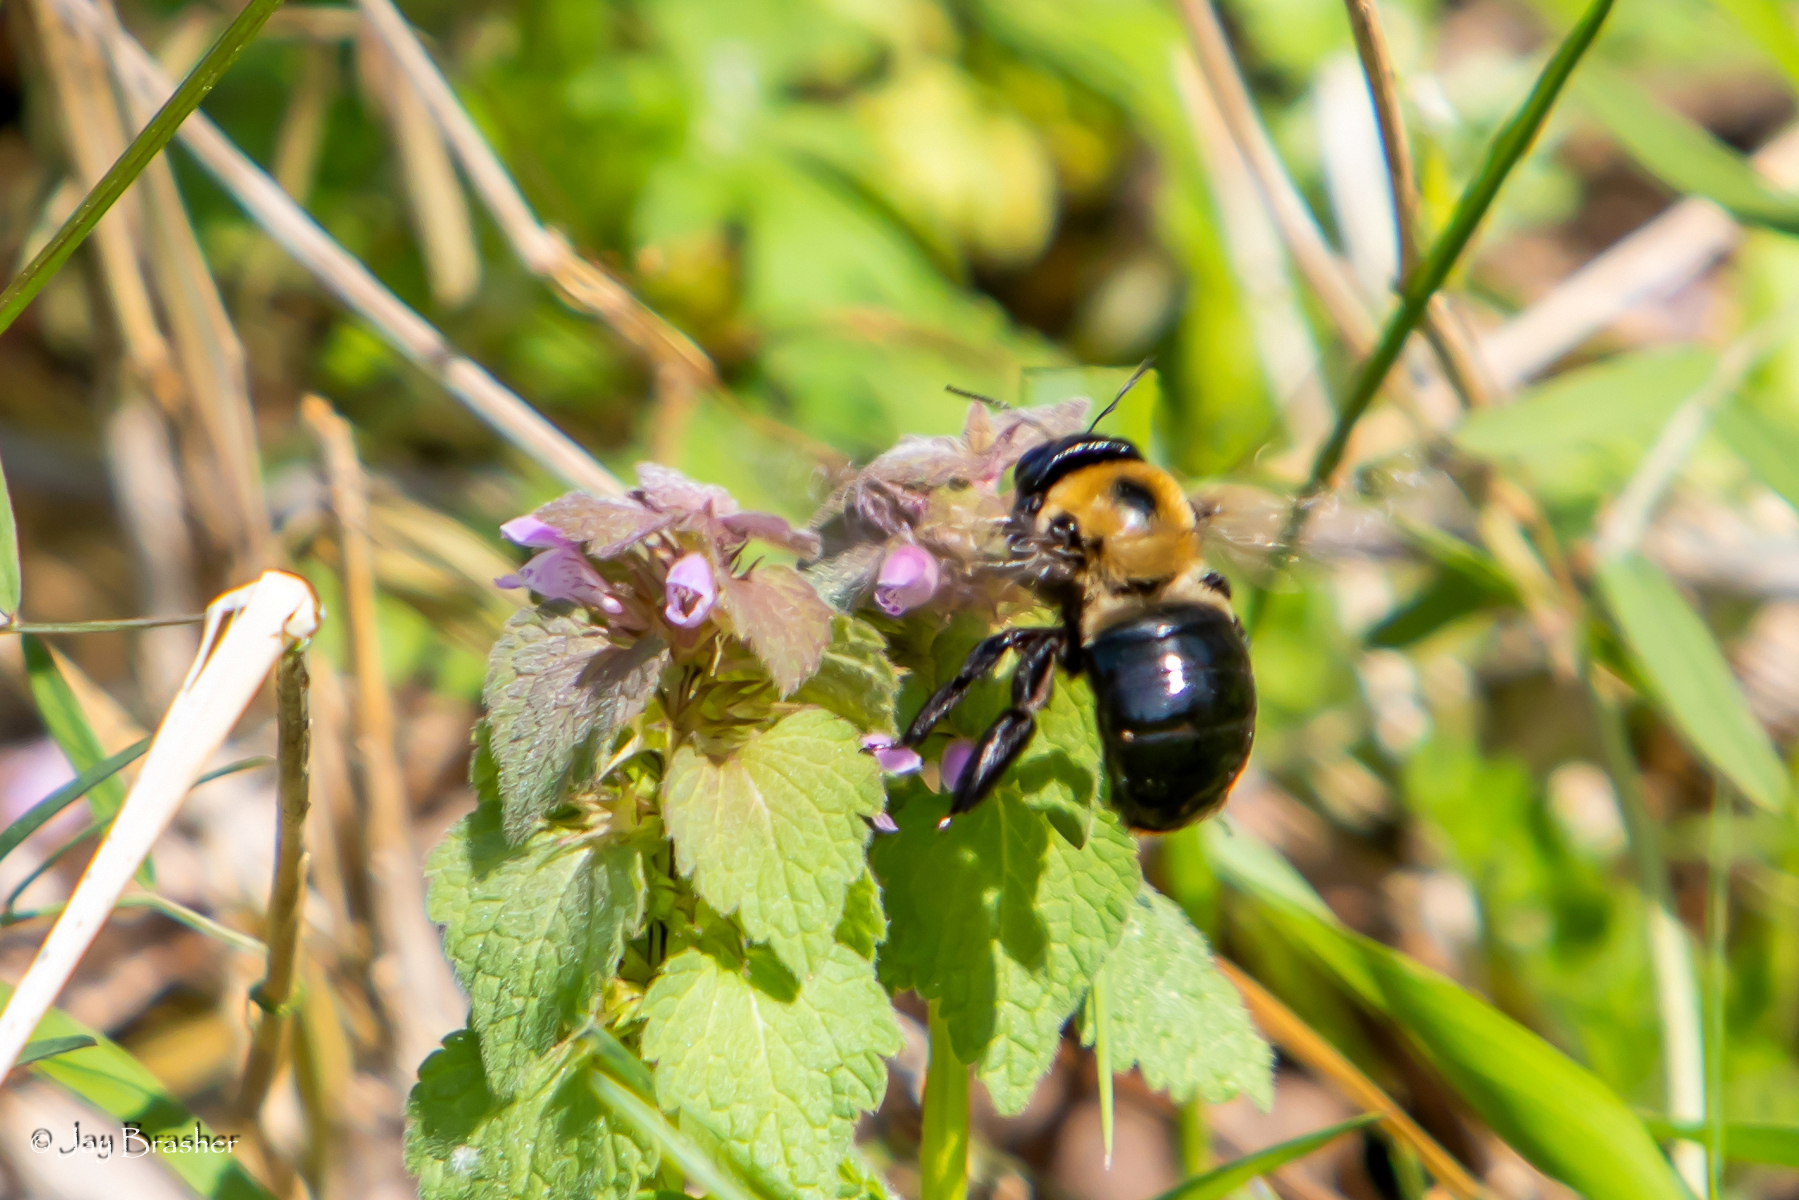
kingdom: Plantae
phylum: Tracheophyta
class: Magnoliopsida
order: Lamiales
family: Lamiaceae
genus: Lamium
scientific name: Lamium purpureum
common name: Red dead-nettle
